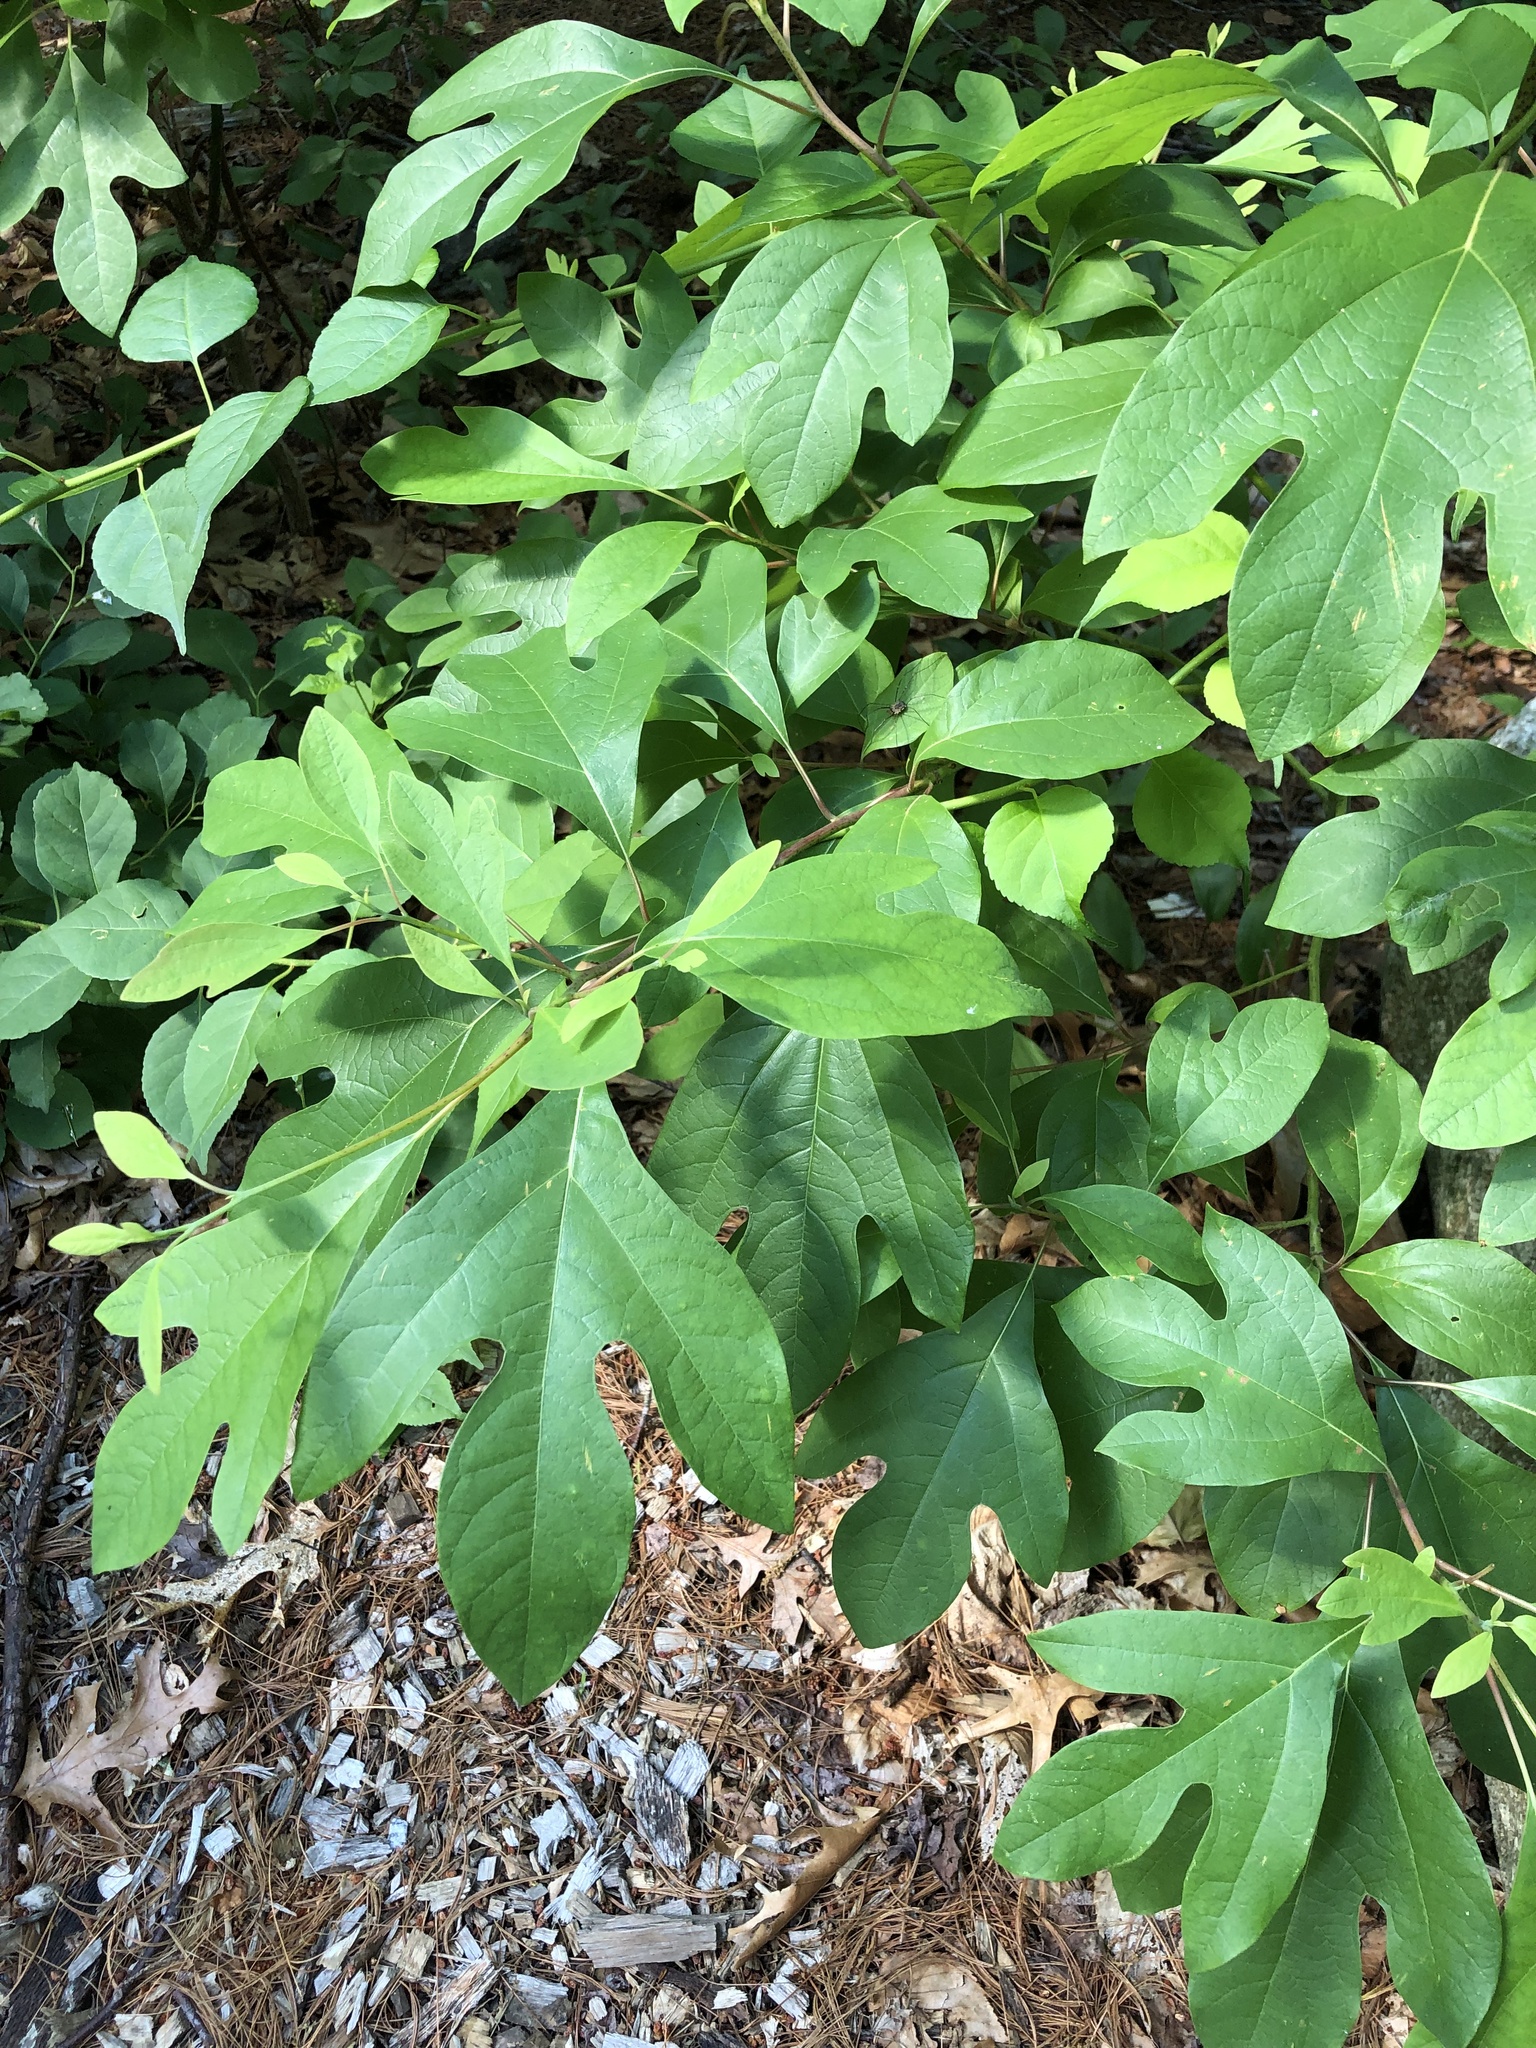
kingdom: Plantae
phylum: Tracheophyta
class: Magnoliopsida
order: Laurales
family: Lauraceae
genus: Sassafras
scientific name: Sassafras albidum
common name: Sassafras
